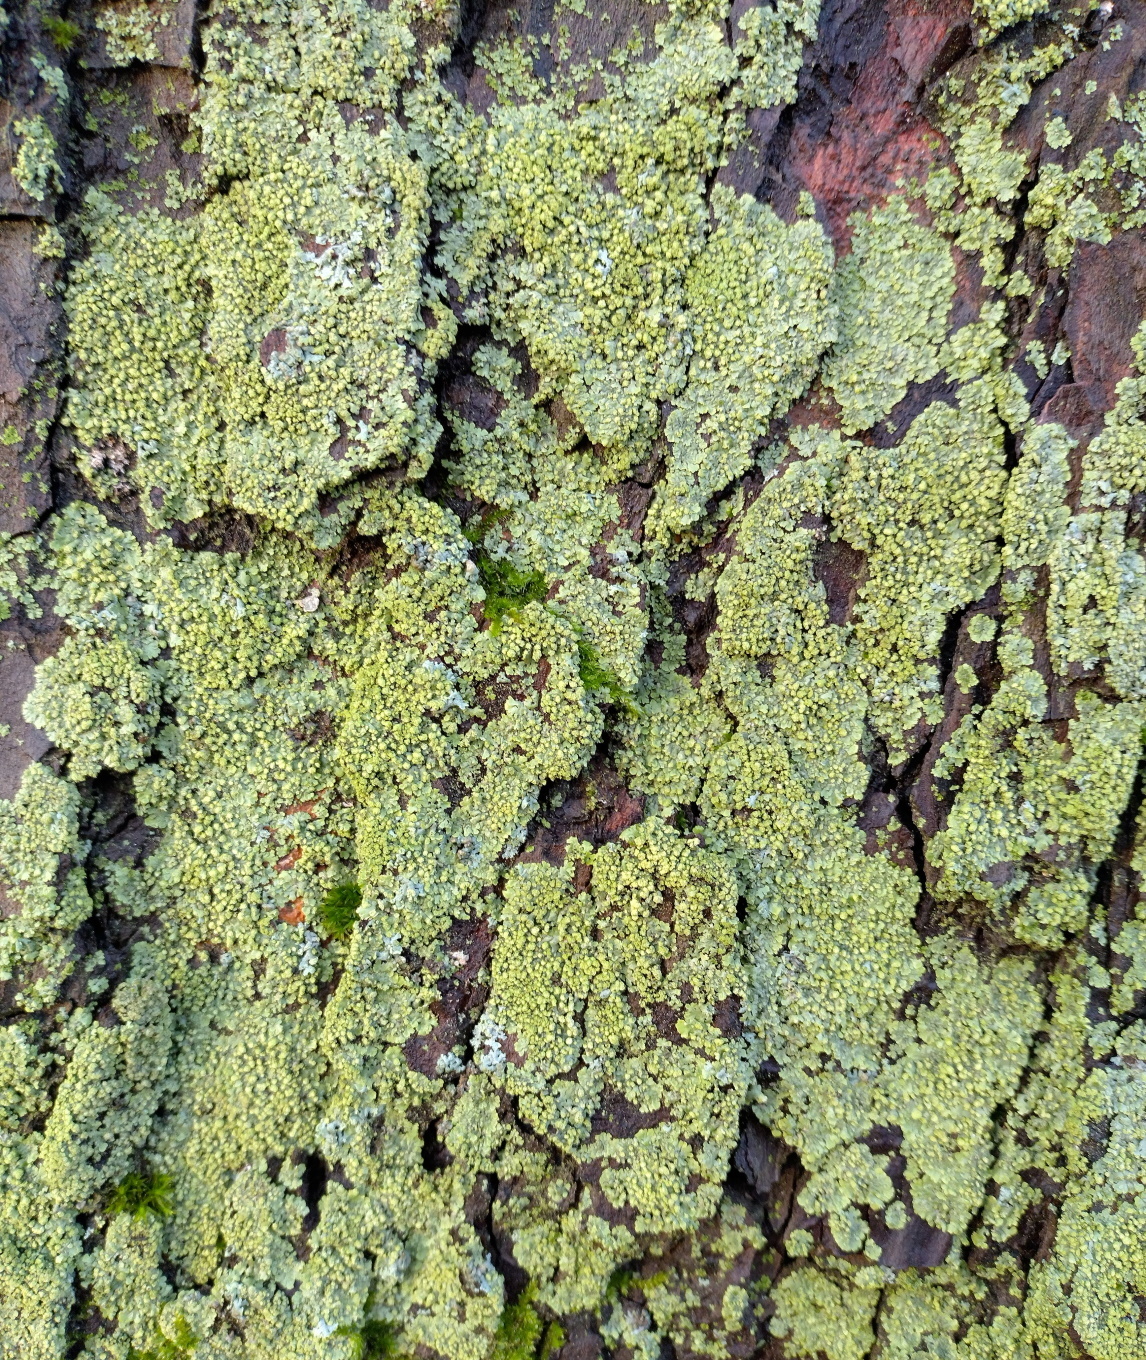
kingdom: Fungi
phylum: Ascomycota
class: Lecanoromycetes
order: Caliciales
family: Physciaceae
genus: Phaeophyscia
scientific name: Phaeophyscia orbicularis
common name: Mealy shadow lichen
